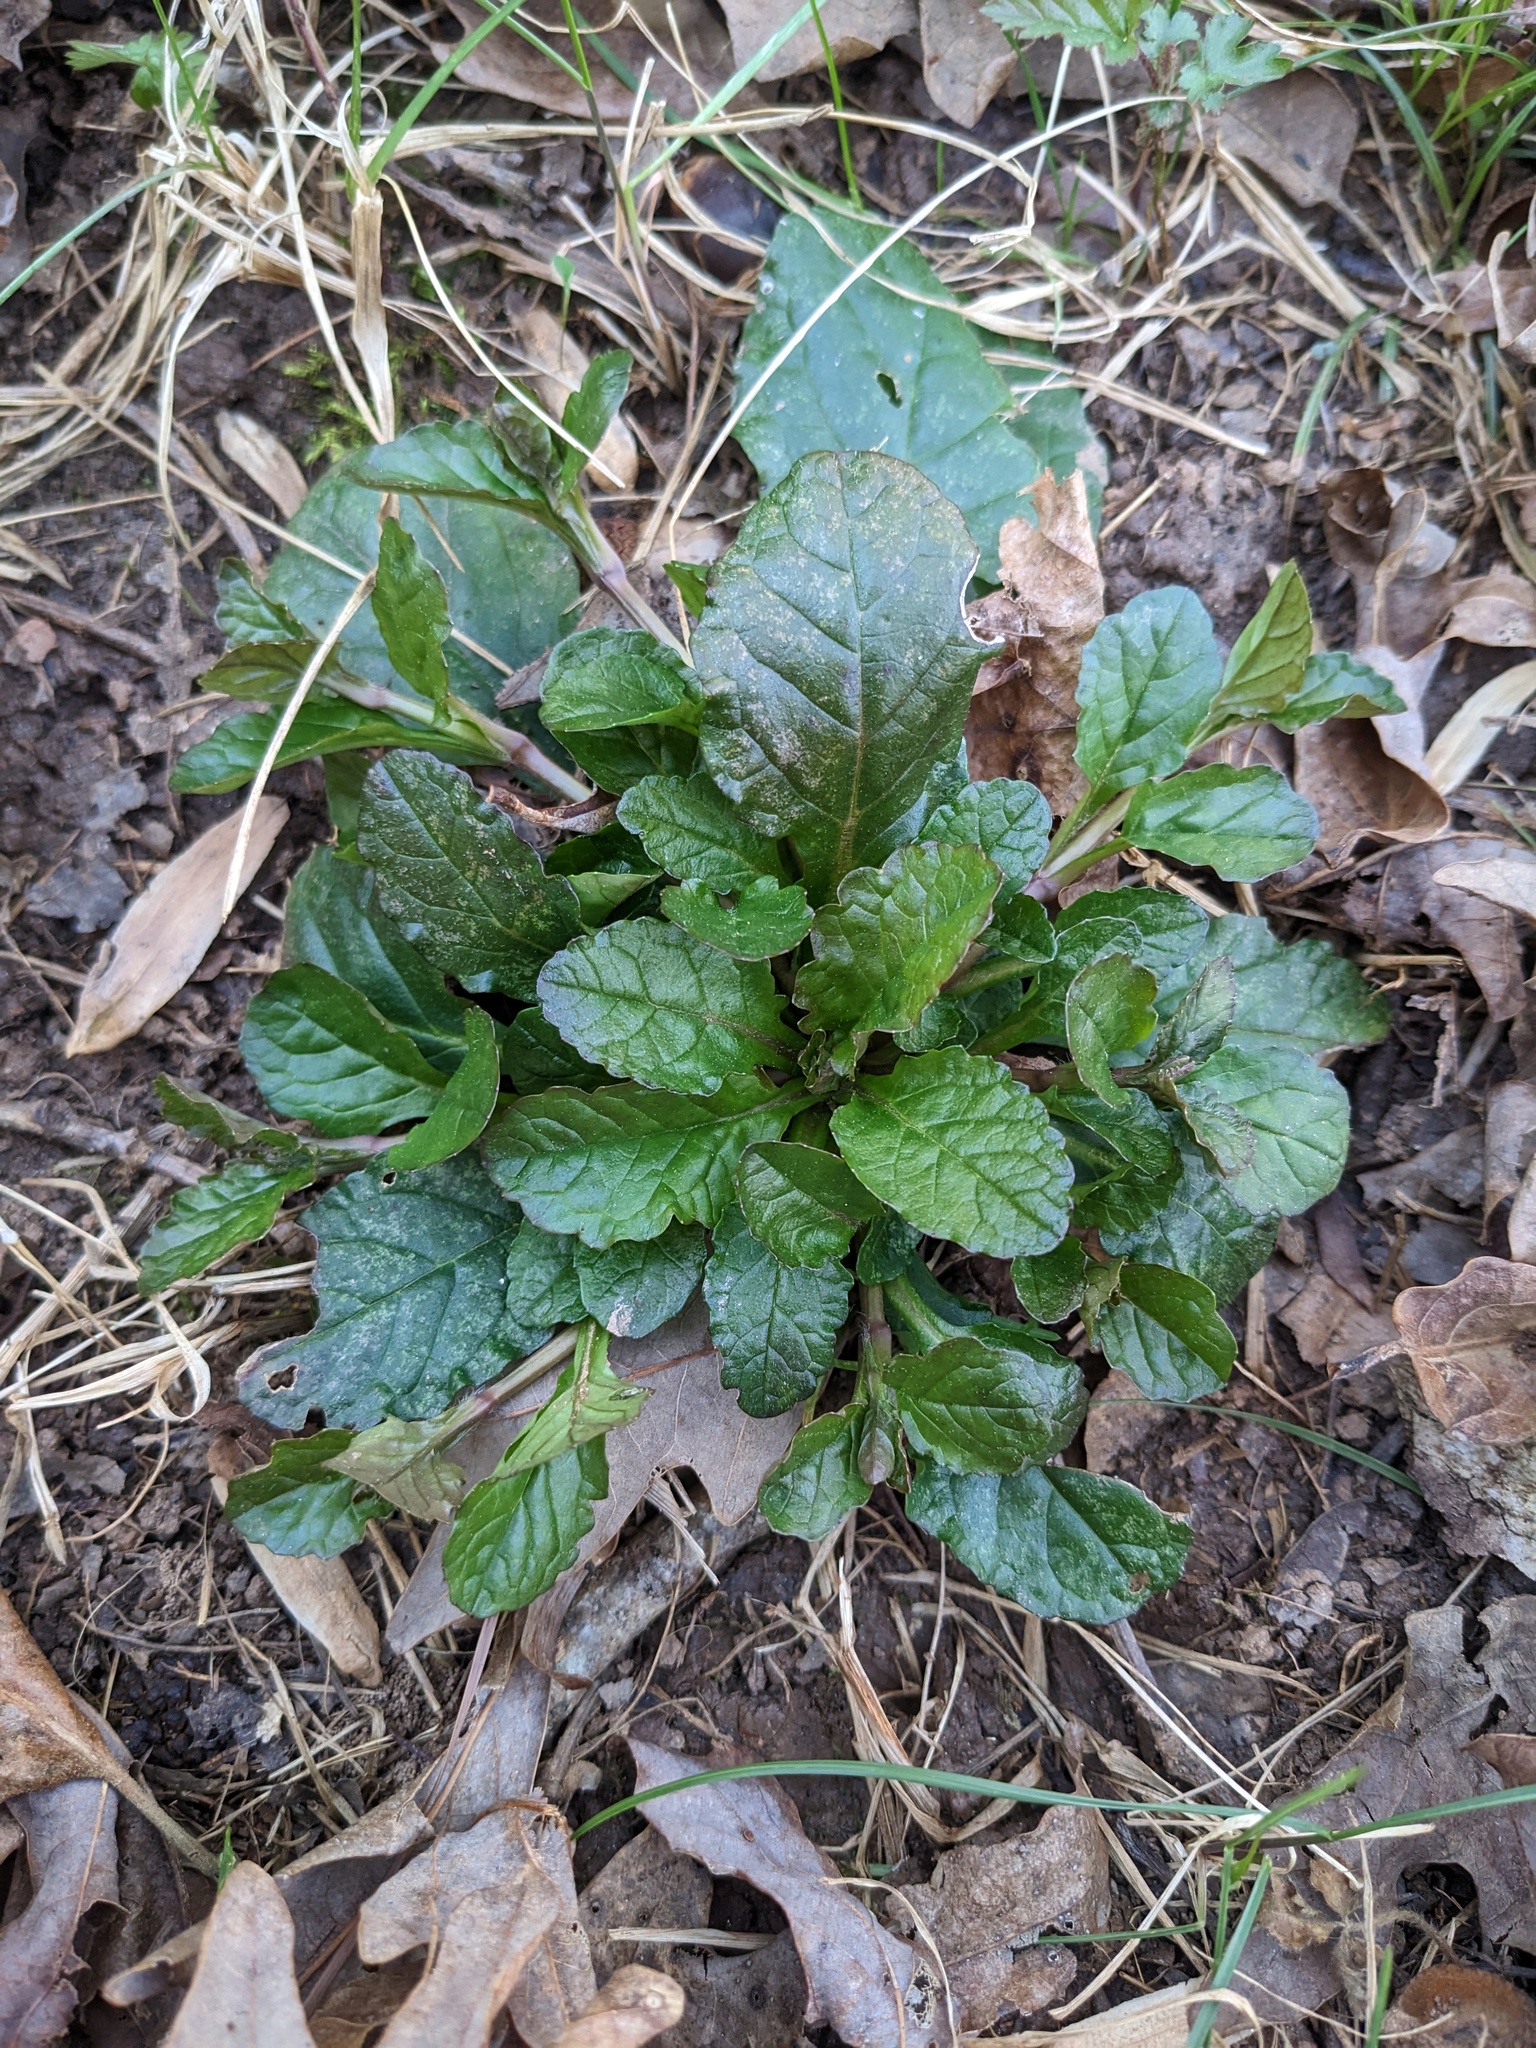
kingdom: Plantae
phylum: Tracheophyta
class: Magnoliopsida
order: Lamiales
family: Lamiaceae
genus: Ajuga
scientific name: Ajuga reptans
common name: Bugle
